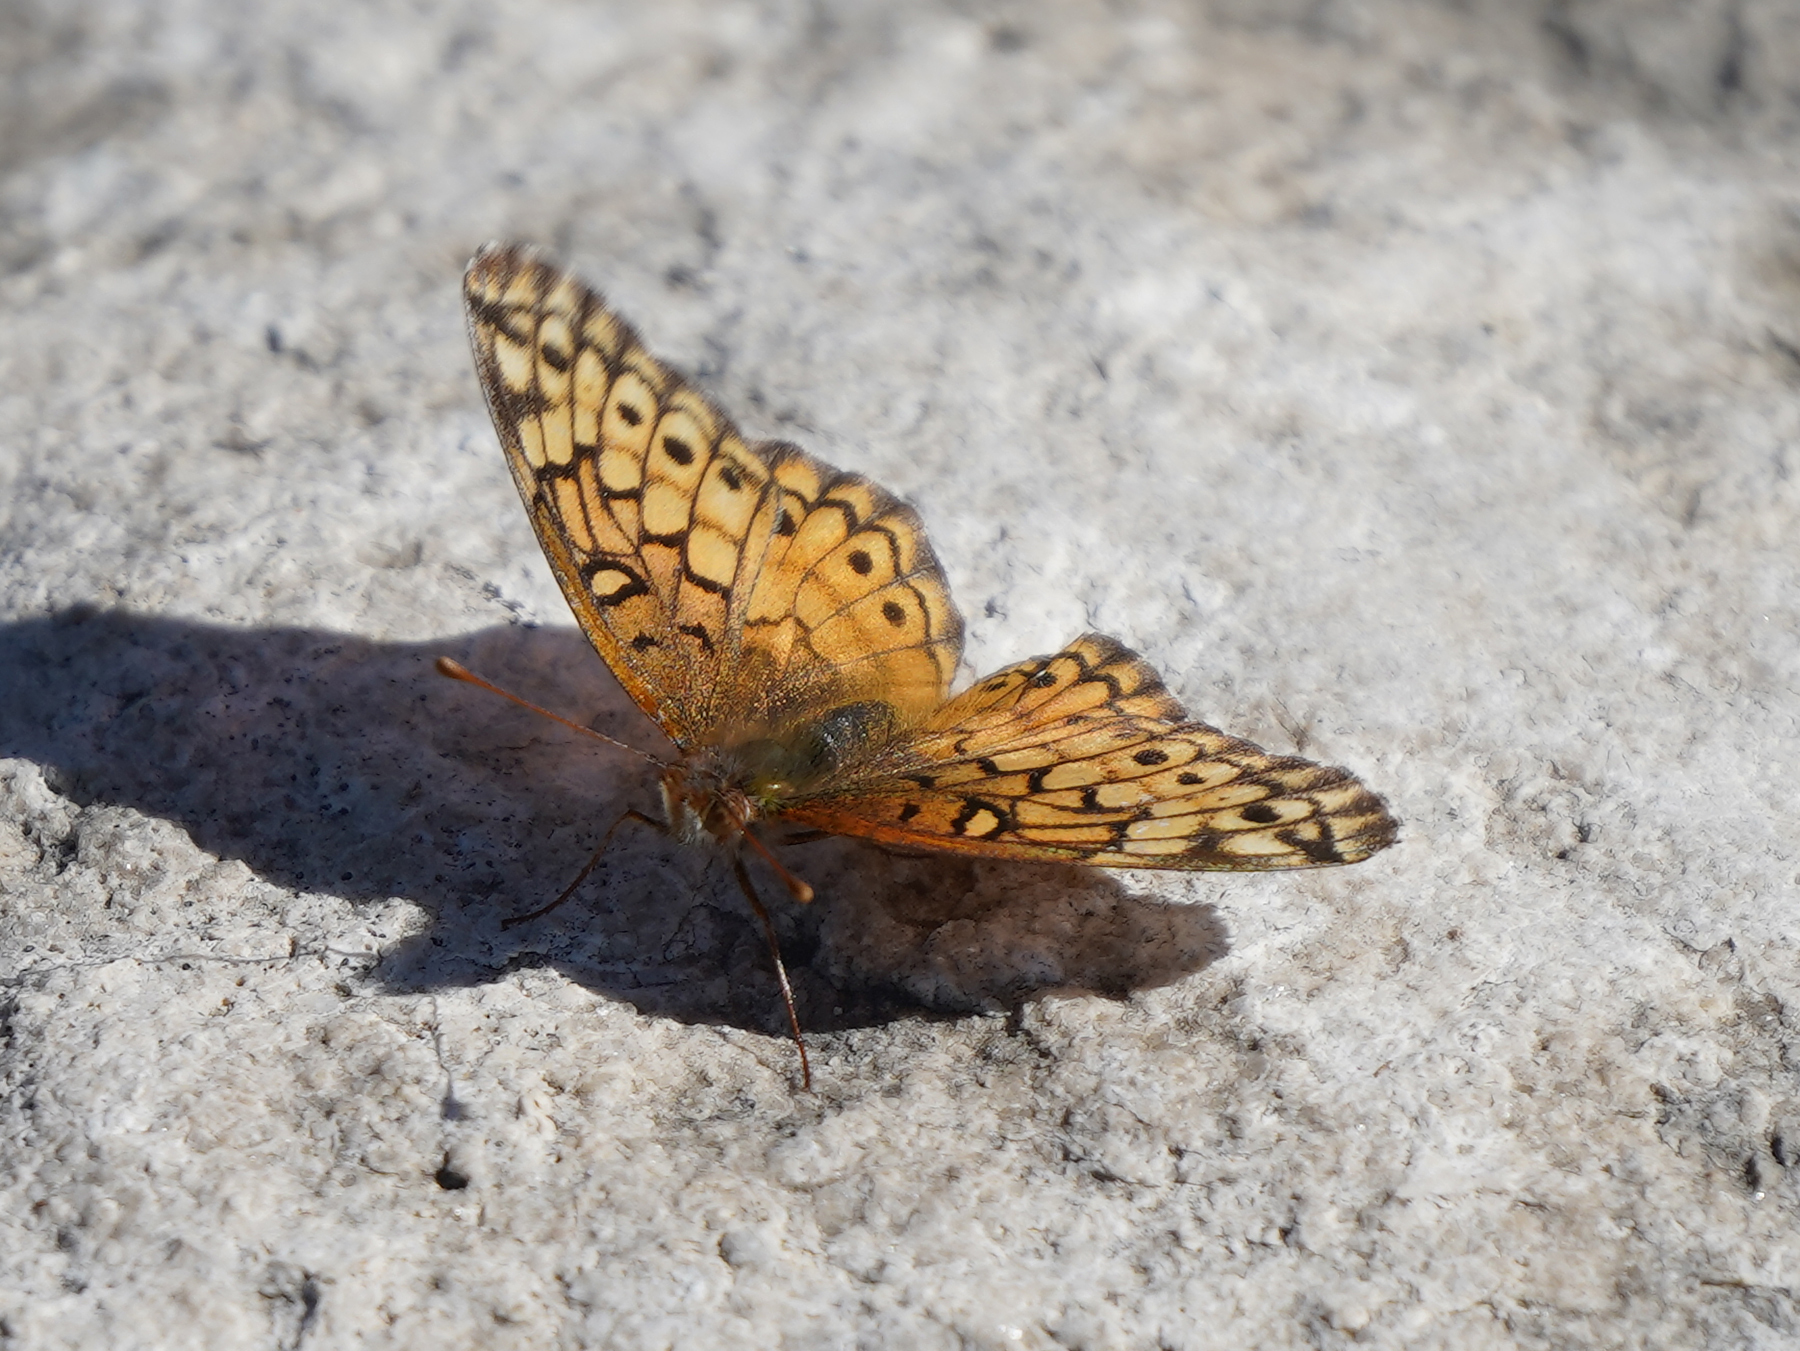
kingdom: Animalia
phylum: Arthropoda
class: Insecta
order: Lepidoptera
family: Nymphalidae
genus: Euptoieta
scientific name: Euptoieta claudia
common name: Variegated fritillary
